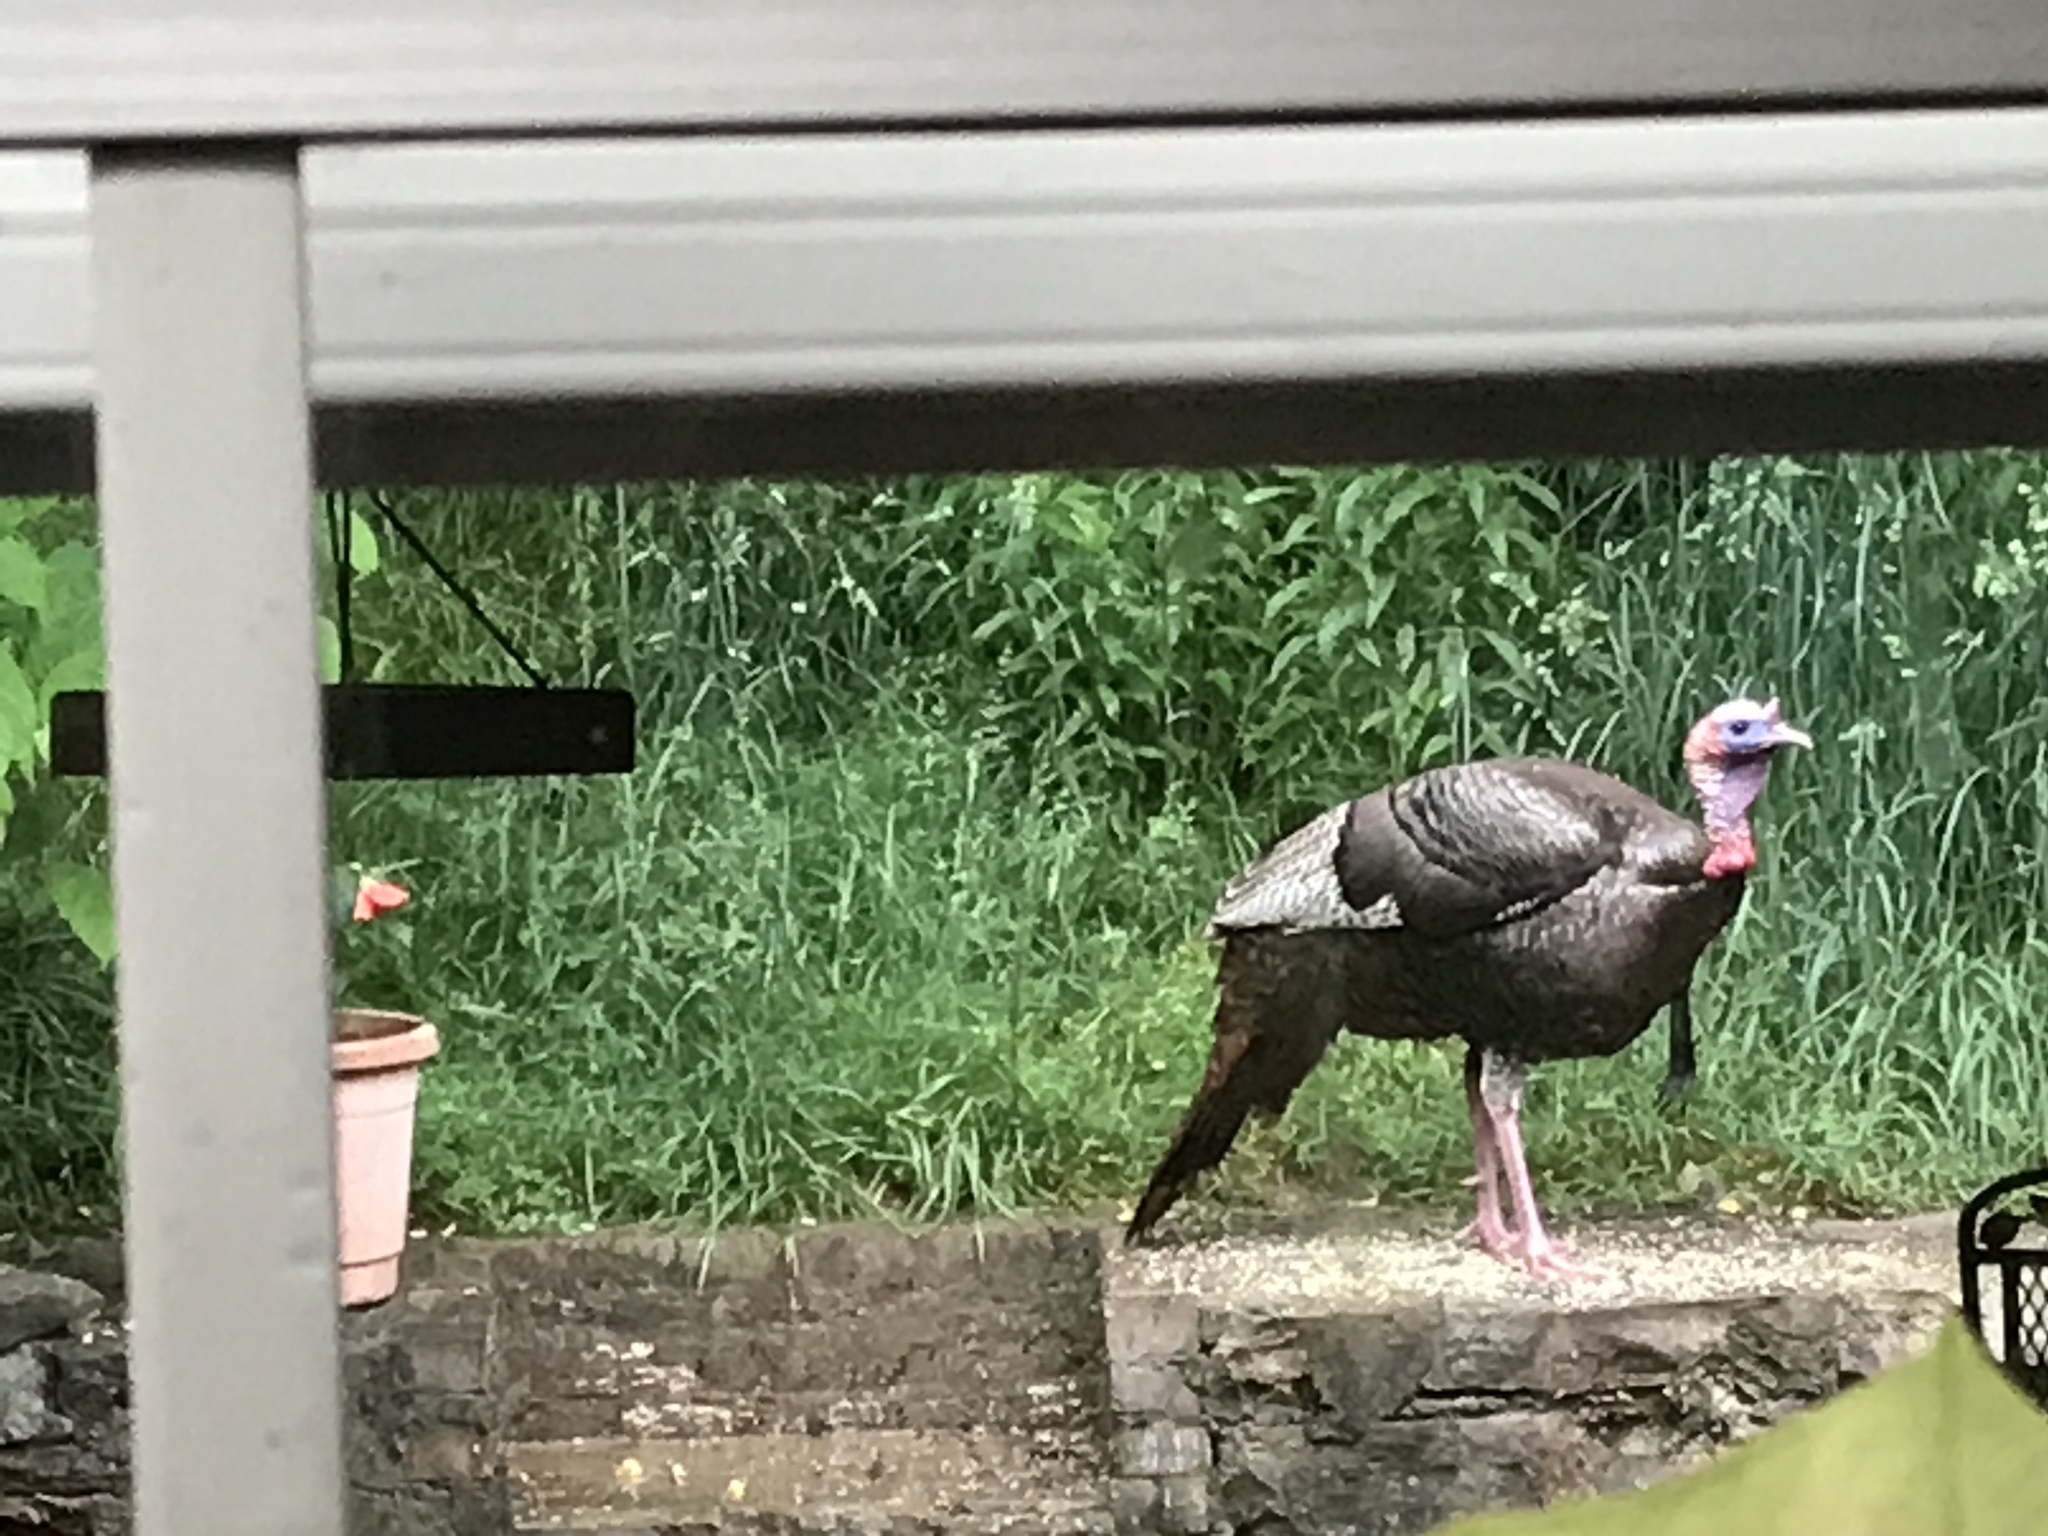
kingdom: Animalia
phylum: Chordata
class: Aves
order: Galliformes
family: Phasianidae
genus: Meleagris
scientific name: Meleagris gallopavo
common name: Wild turkey
